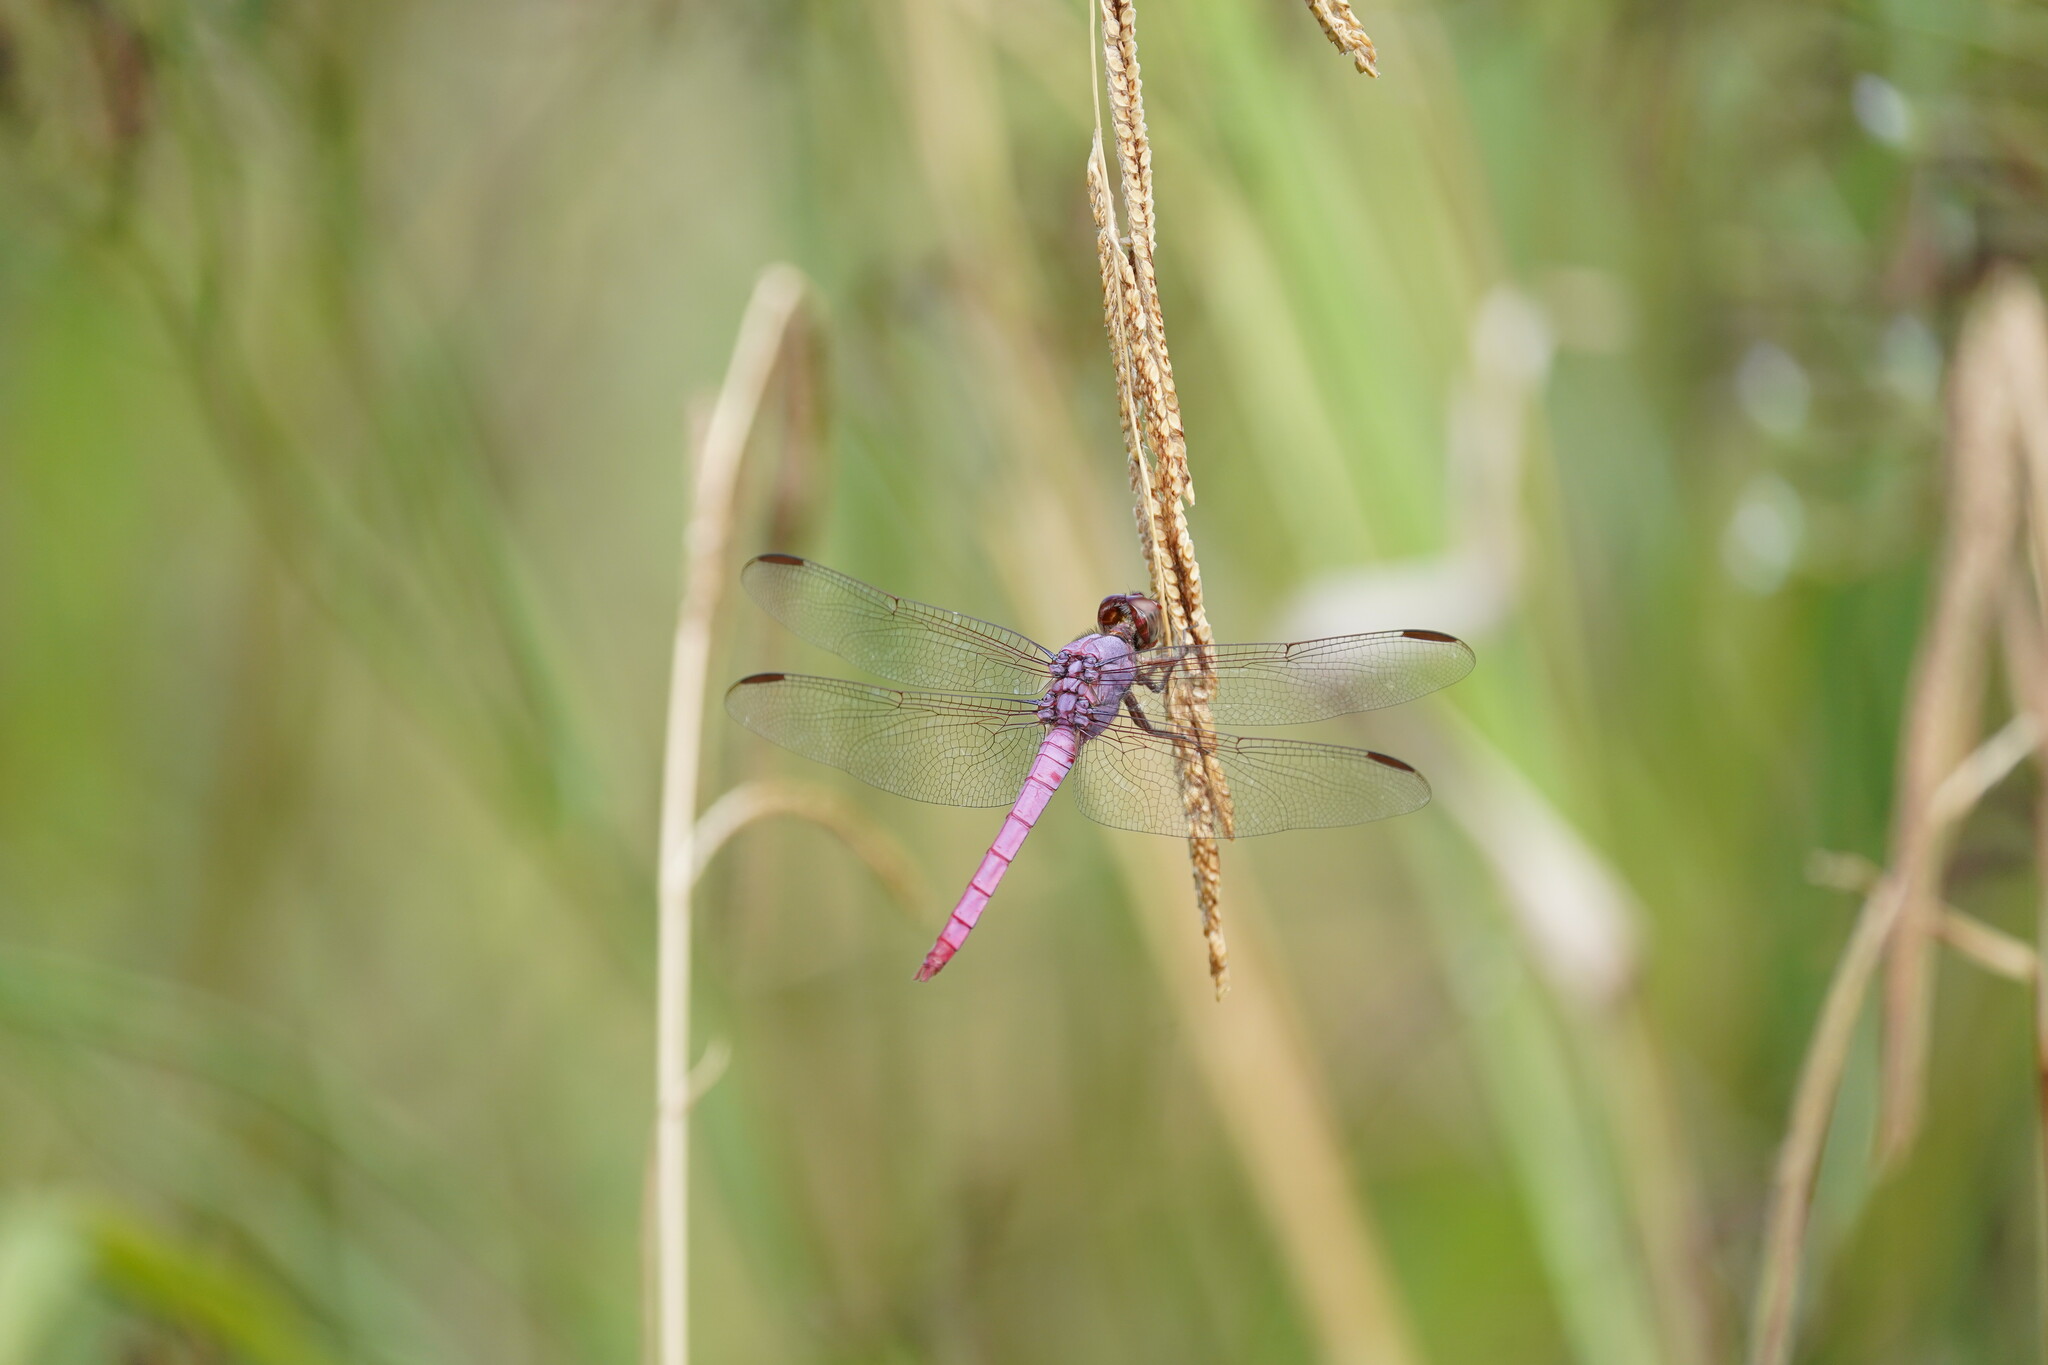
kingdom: Animalia
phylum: Arthropoda
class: Insecta
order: Odonata
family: Libellulidae
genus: Orthemis
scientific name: Orthemis ferruginea
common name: Roseate skimmer
